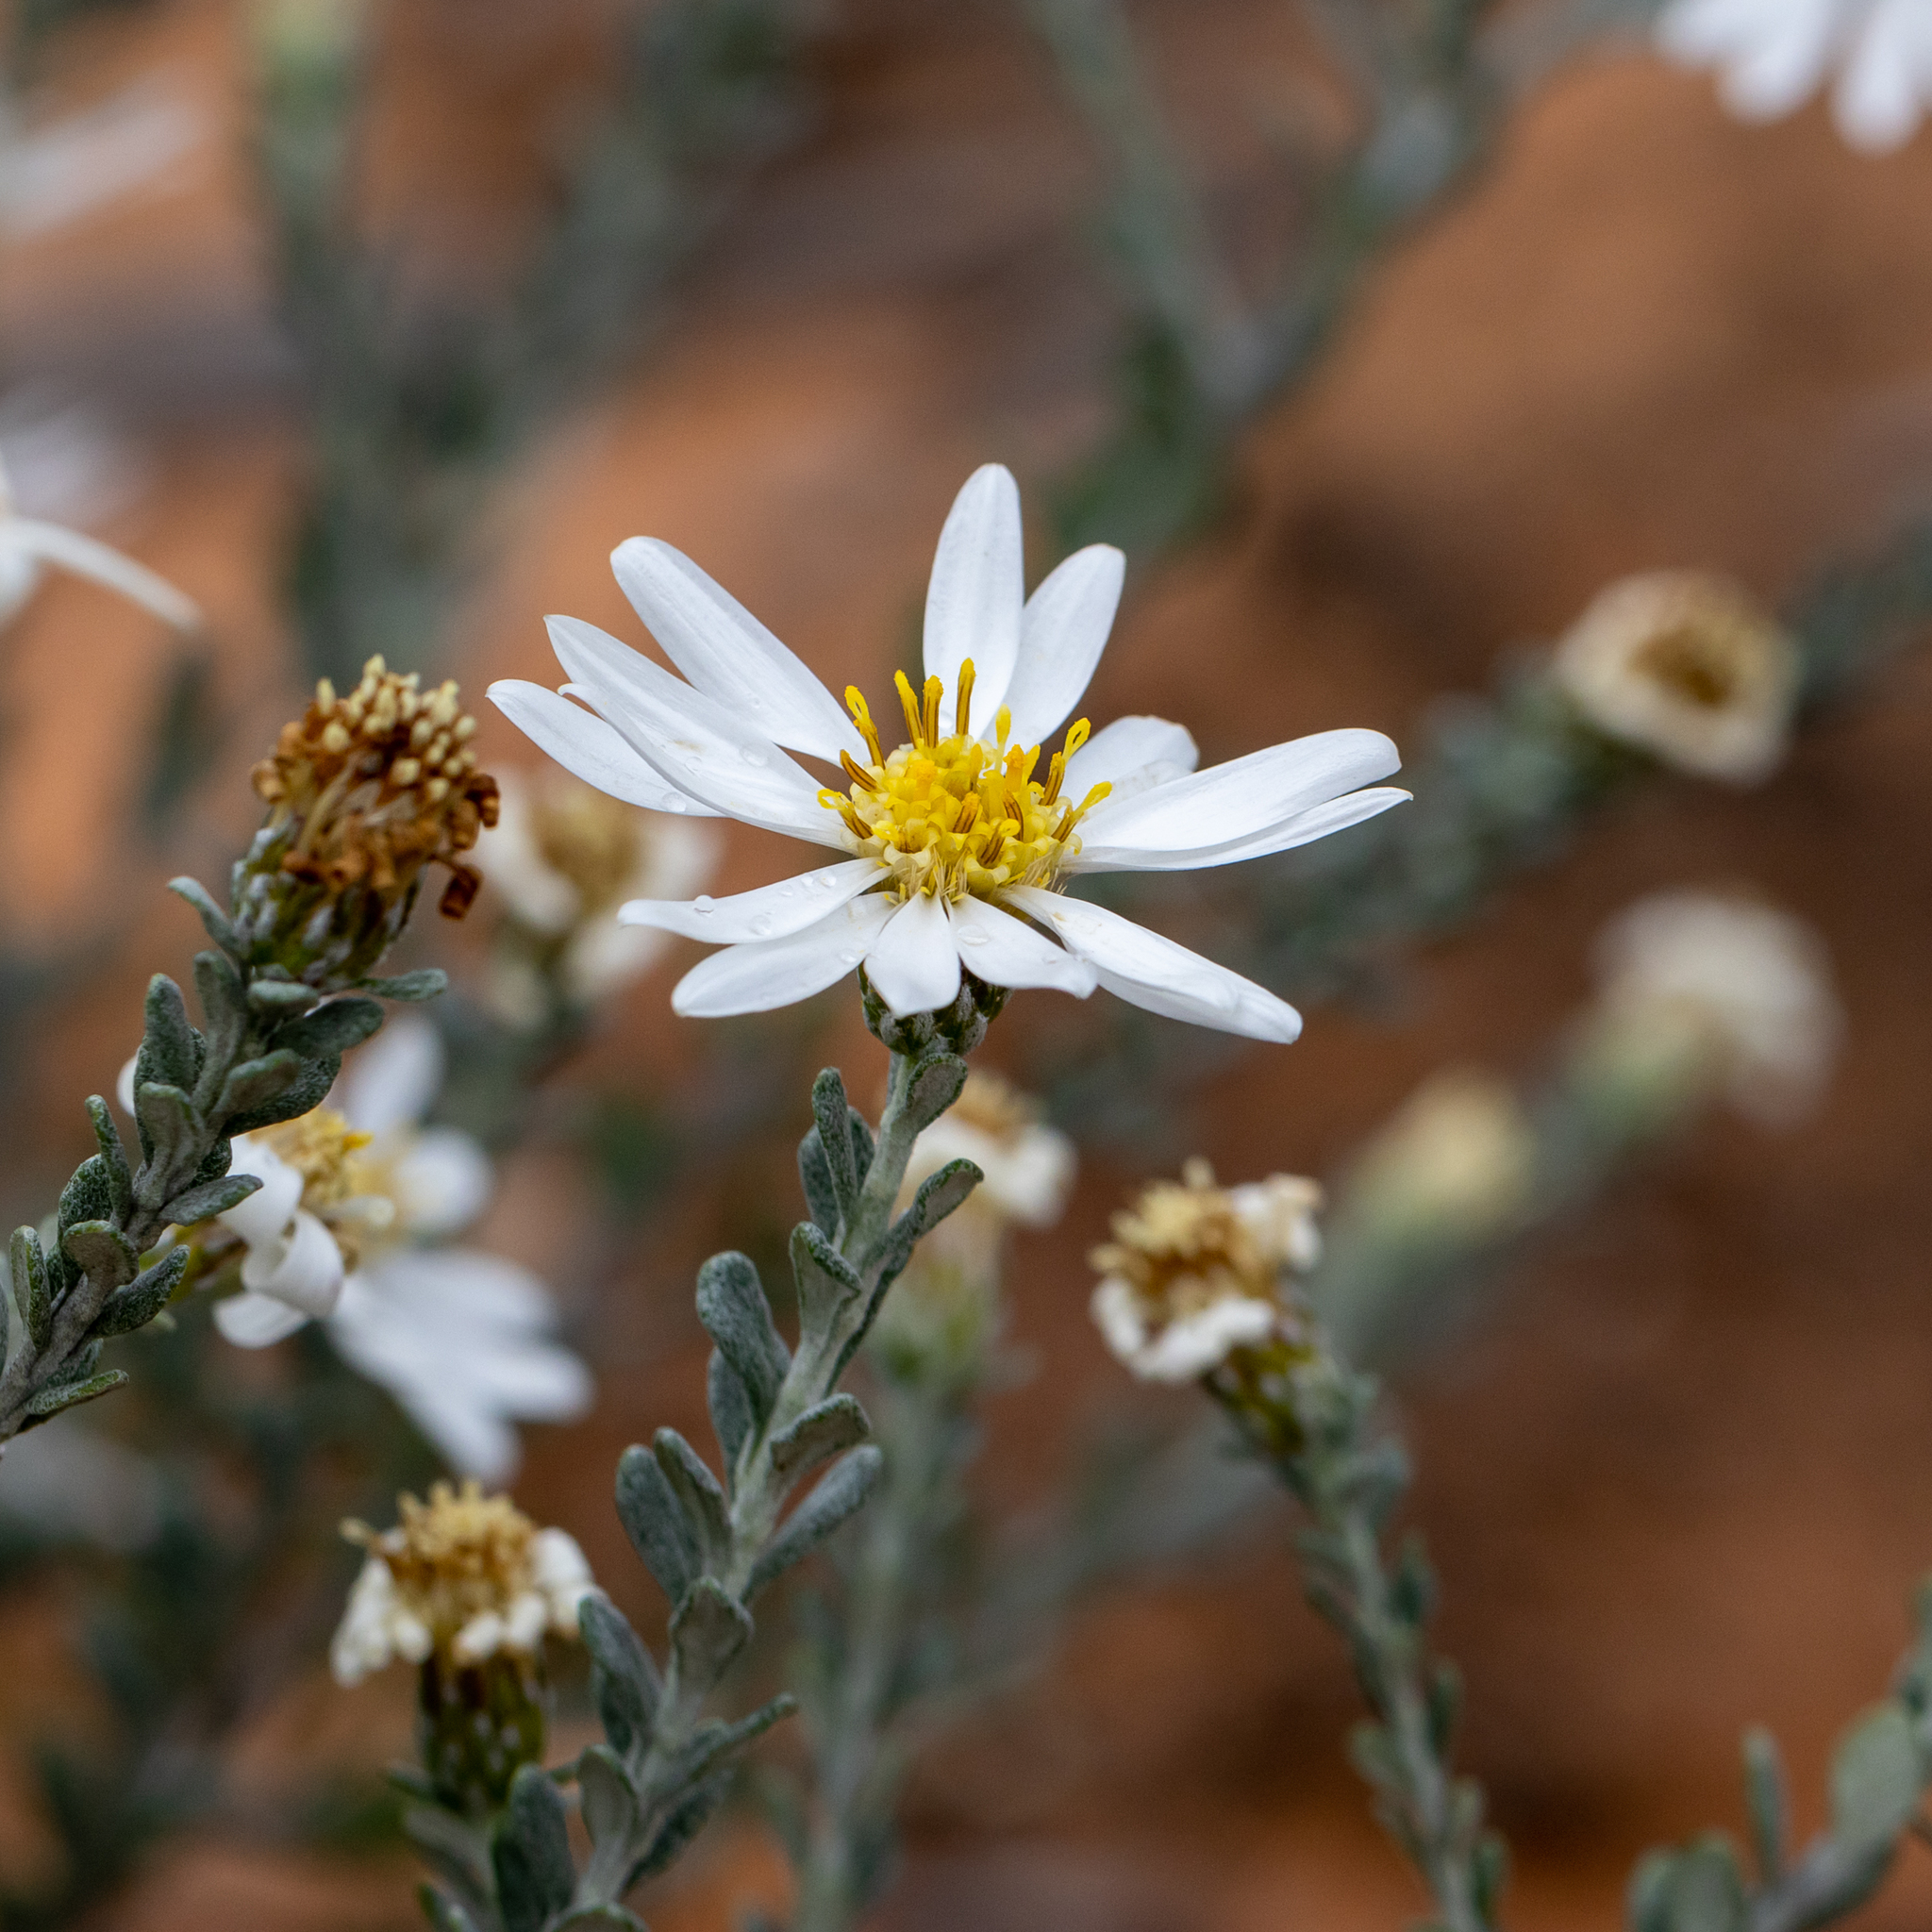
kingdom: Plantae
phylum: Tracheophyta
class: Magnoliopsida
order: Asterales
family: Asteraceae
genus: Olearia
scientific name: Olearia pimeleoides
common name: Showy daisybush
